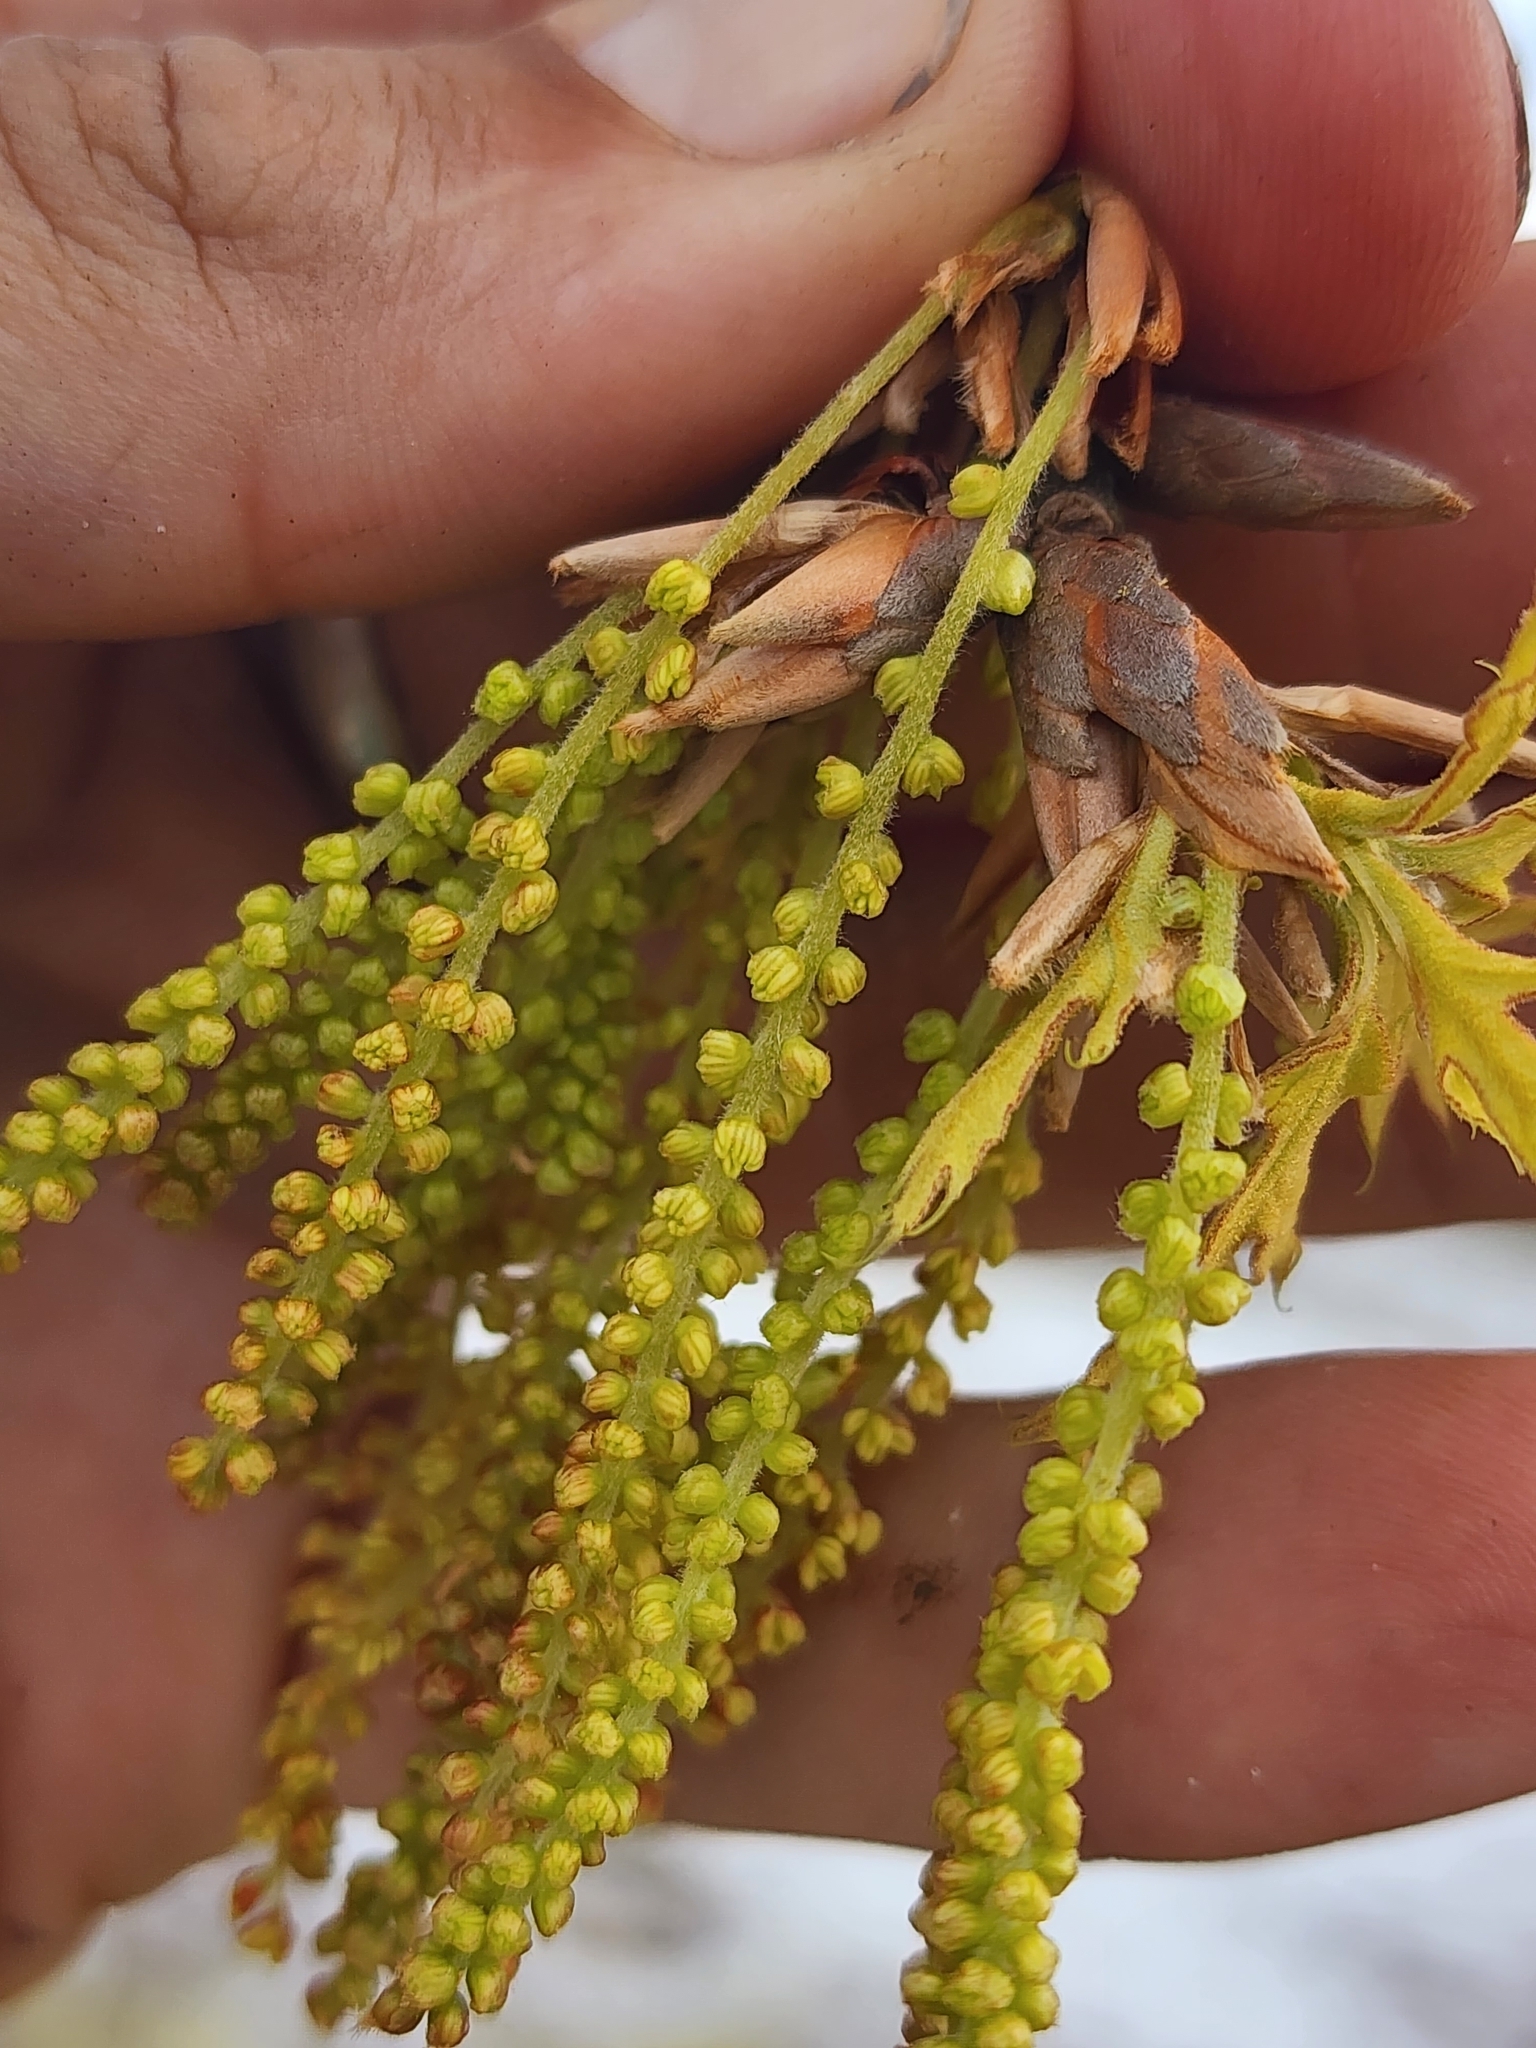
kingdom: Plantae
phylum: Tracheophyta
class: Magnoliopsida
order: Fagales
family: Fagaceae
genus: Quercus
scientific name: Quercus laevis
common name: Turkey oak
